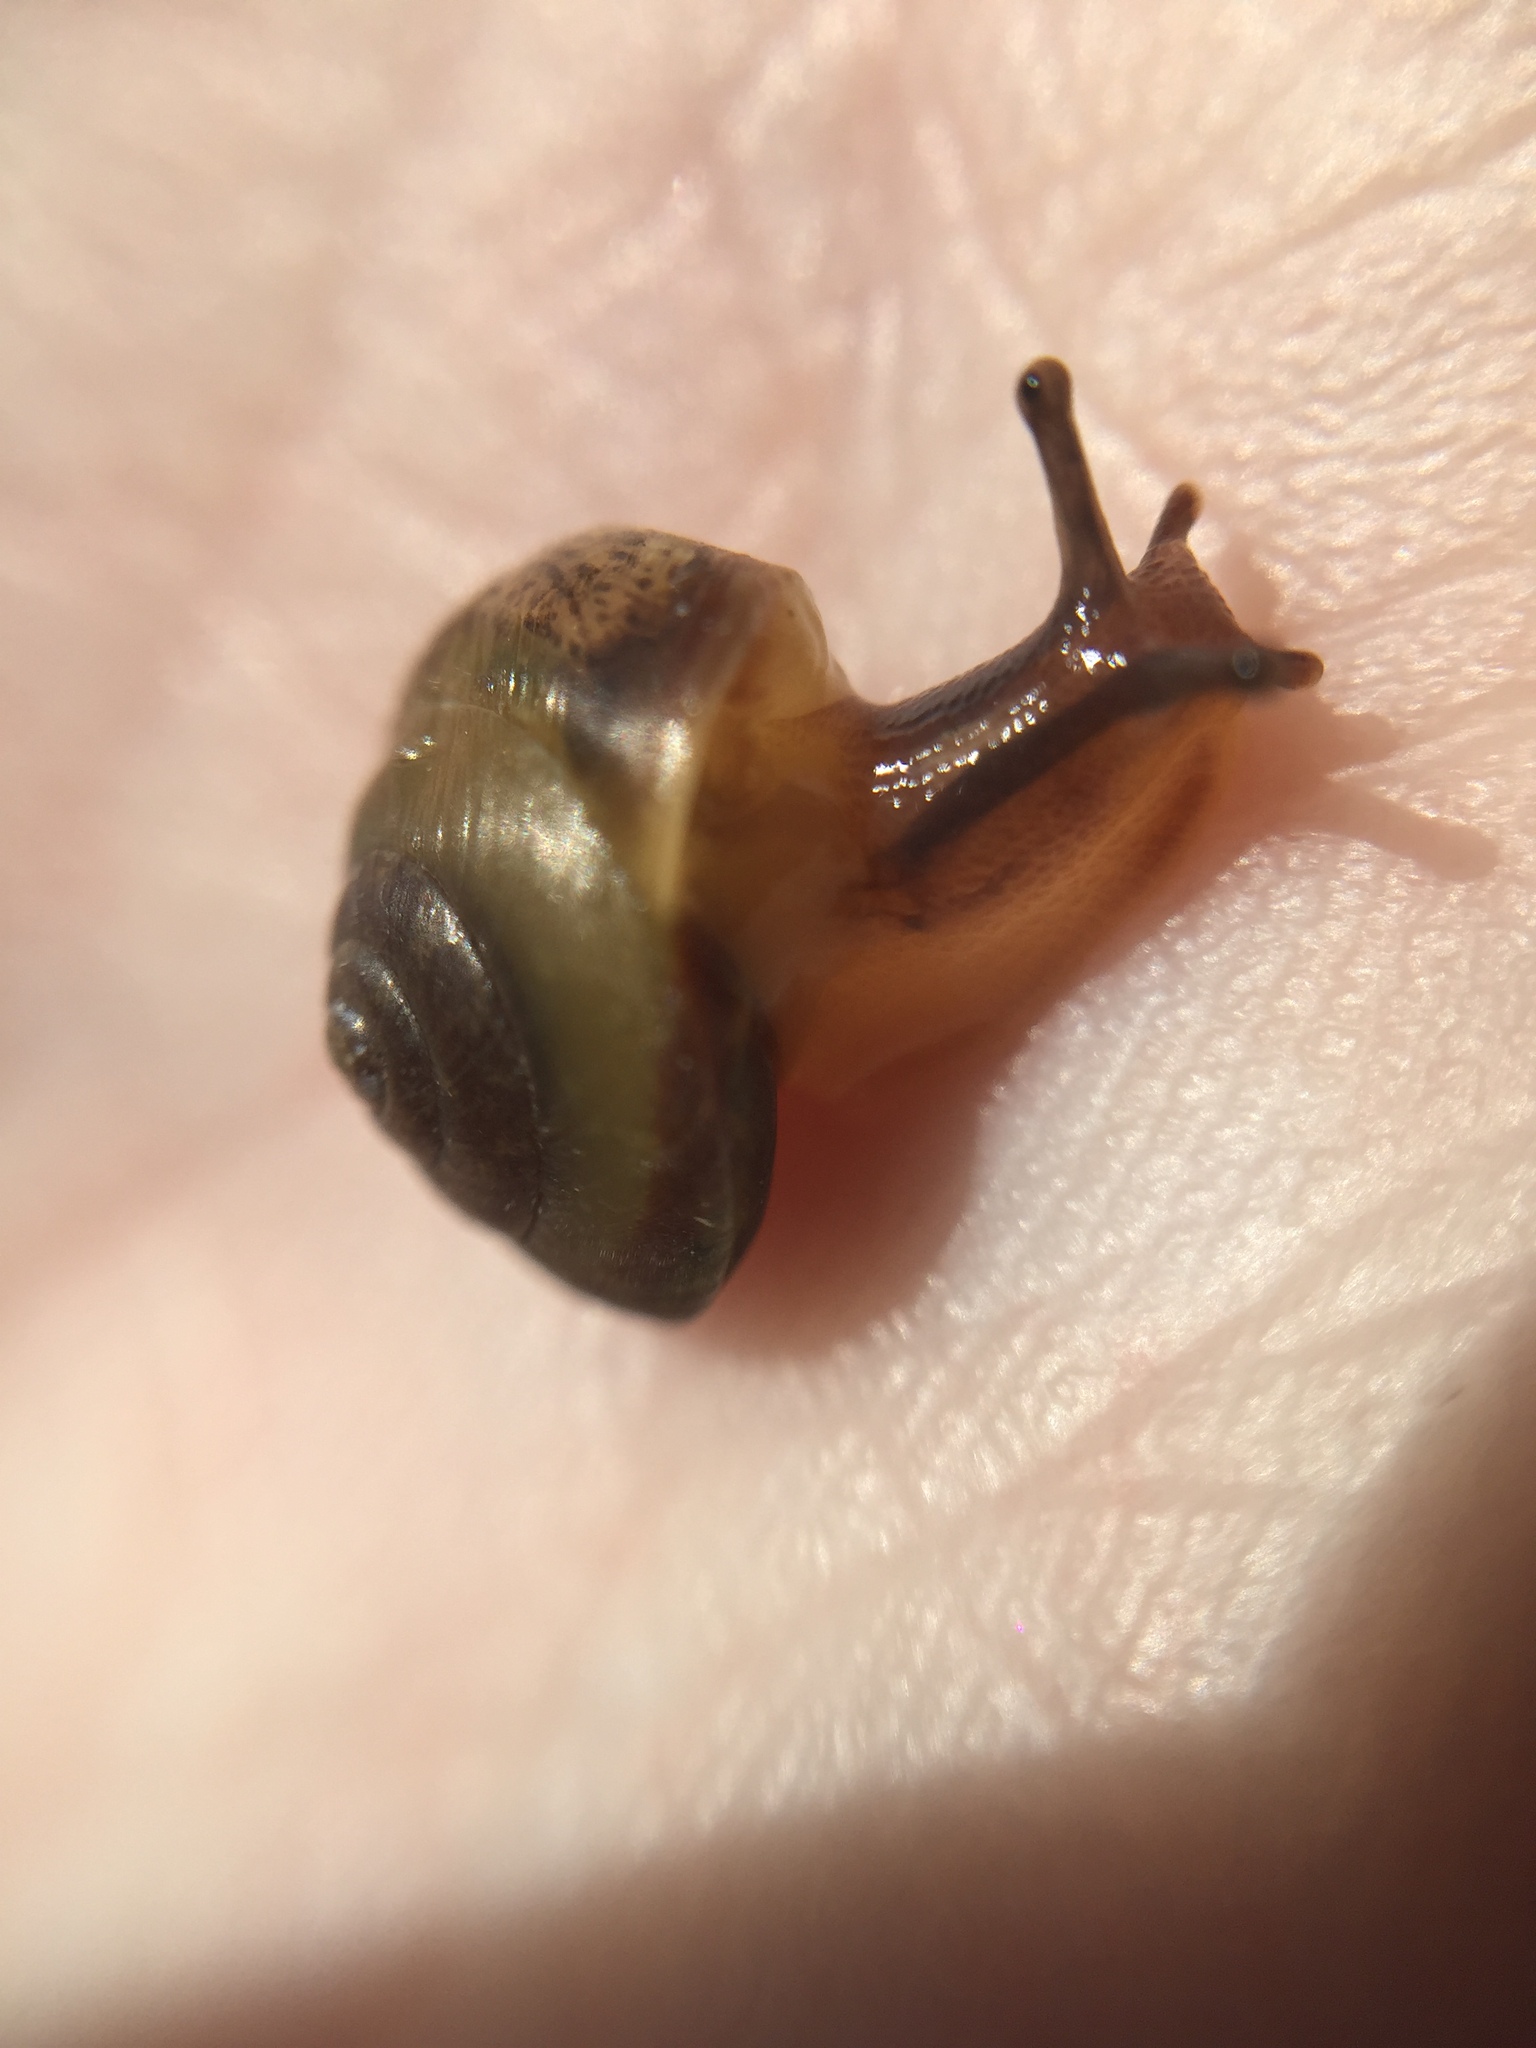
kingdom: Animalia
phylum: Mollusca
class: Gastropoda
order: Stylommatophora
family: Hygromiidae
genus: Hygromia
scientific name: Hygromia cinctella
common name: Girdled snail
